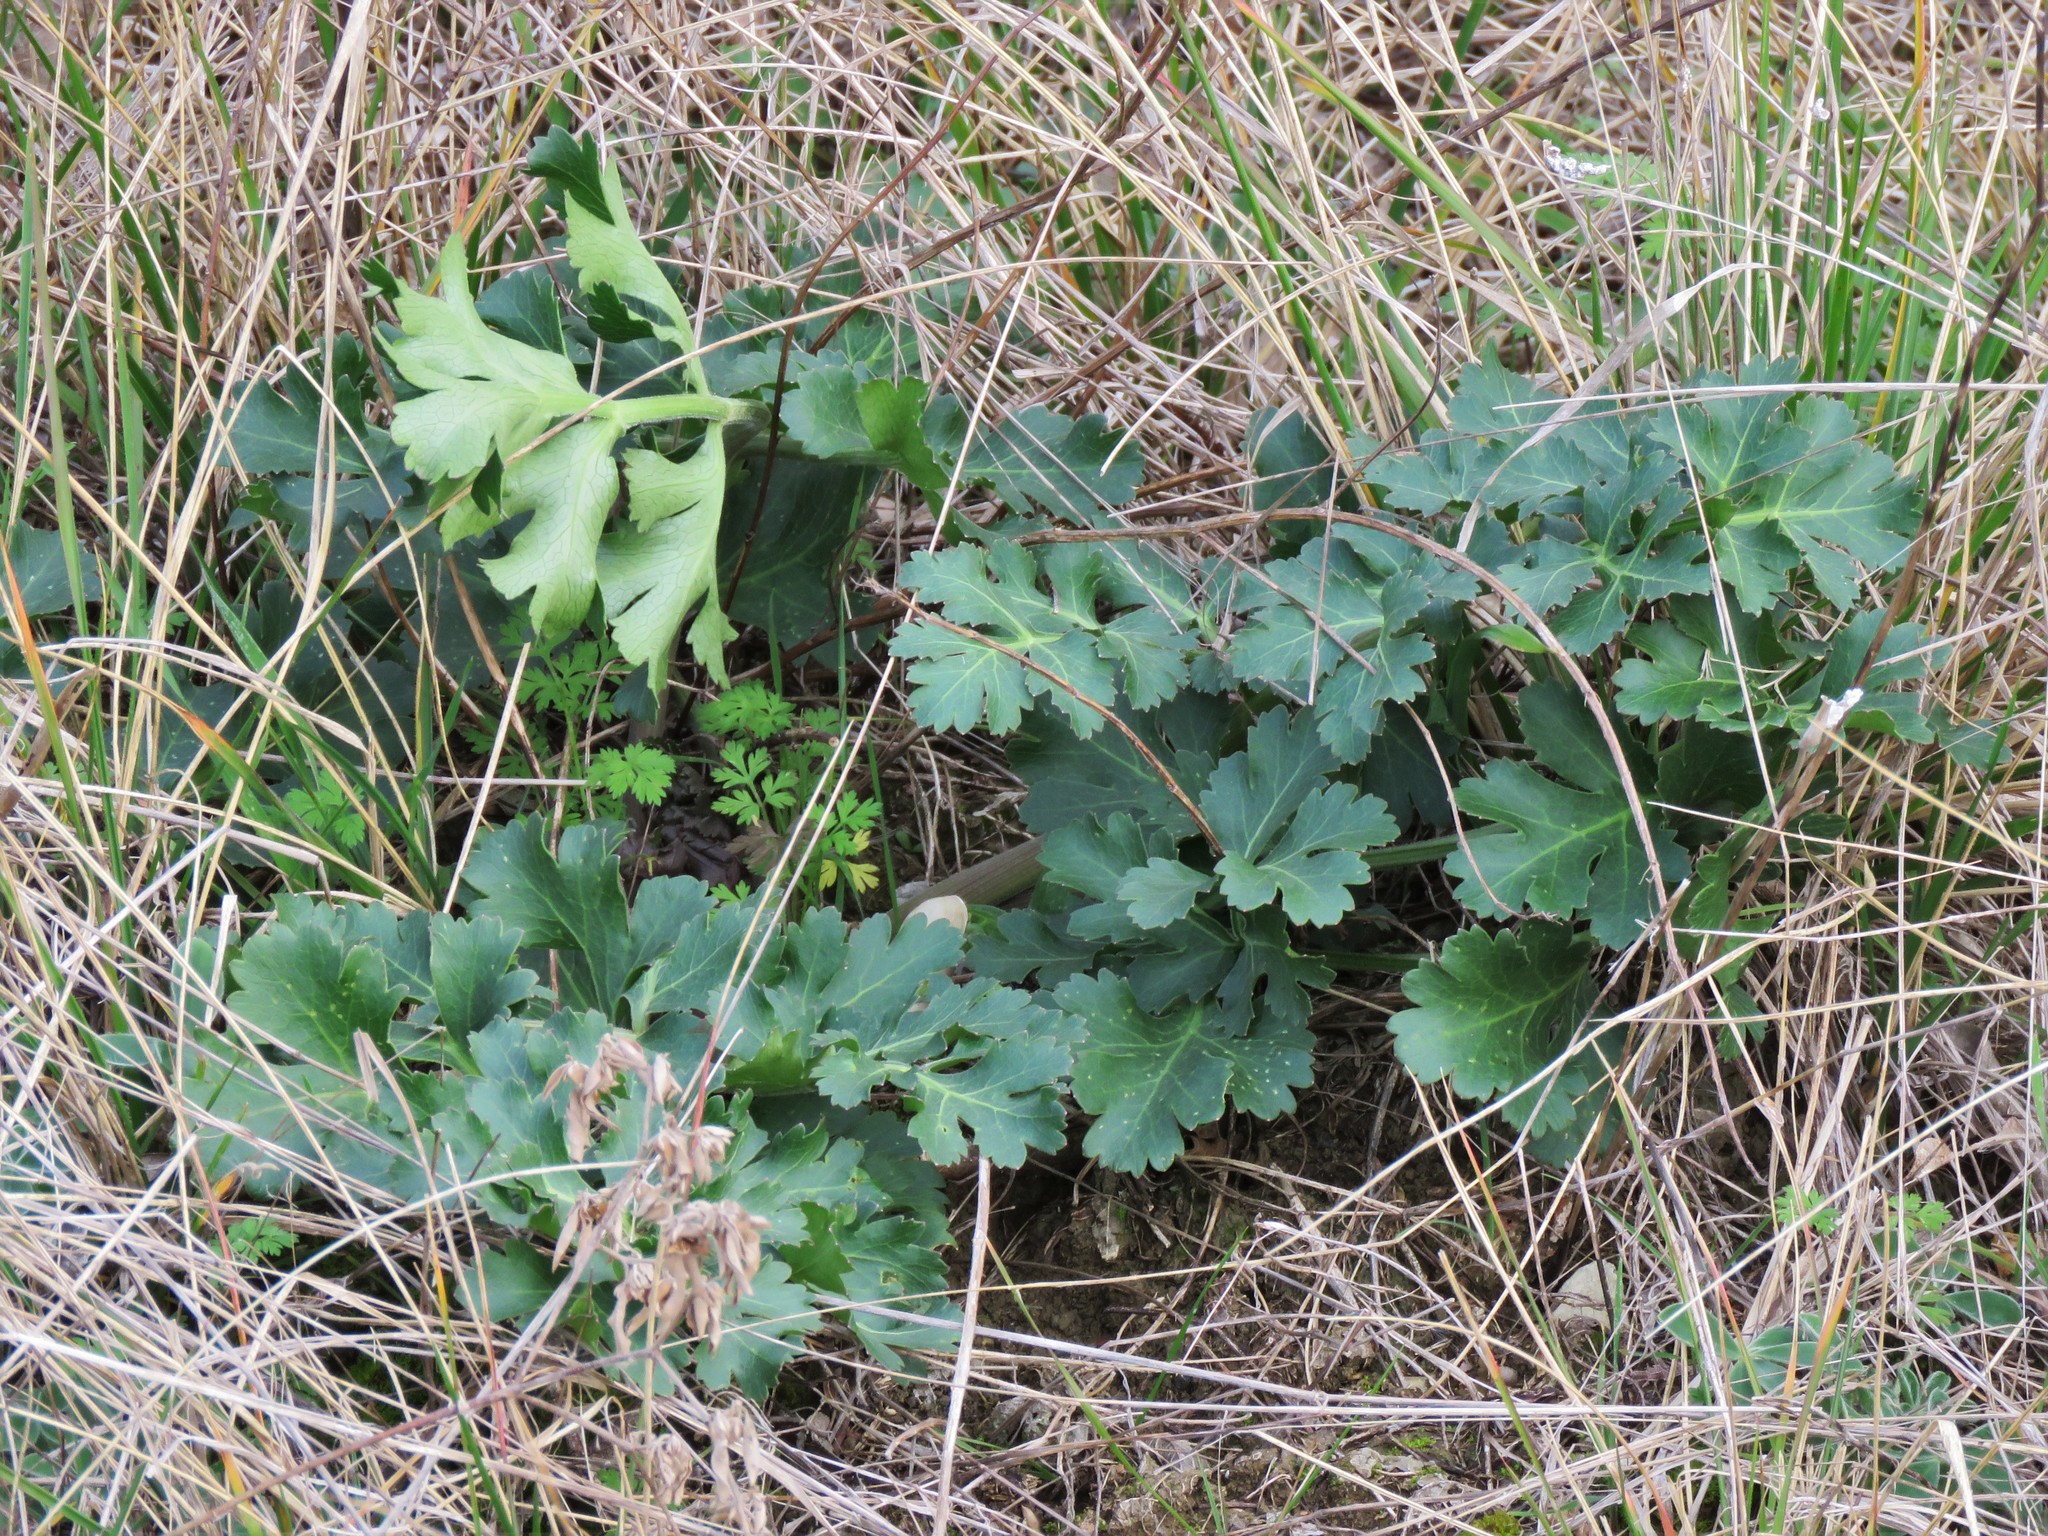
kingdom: Plantae
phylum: Tracheophyta
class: Magnoliopsida
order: Apiales
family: Apiaceae
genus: Polytaenia
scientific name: Polytaenia texana
